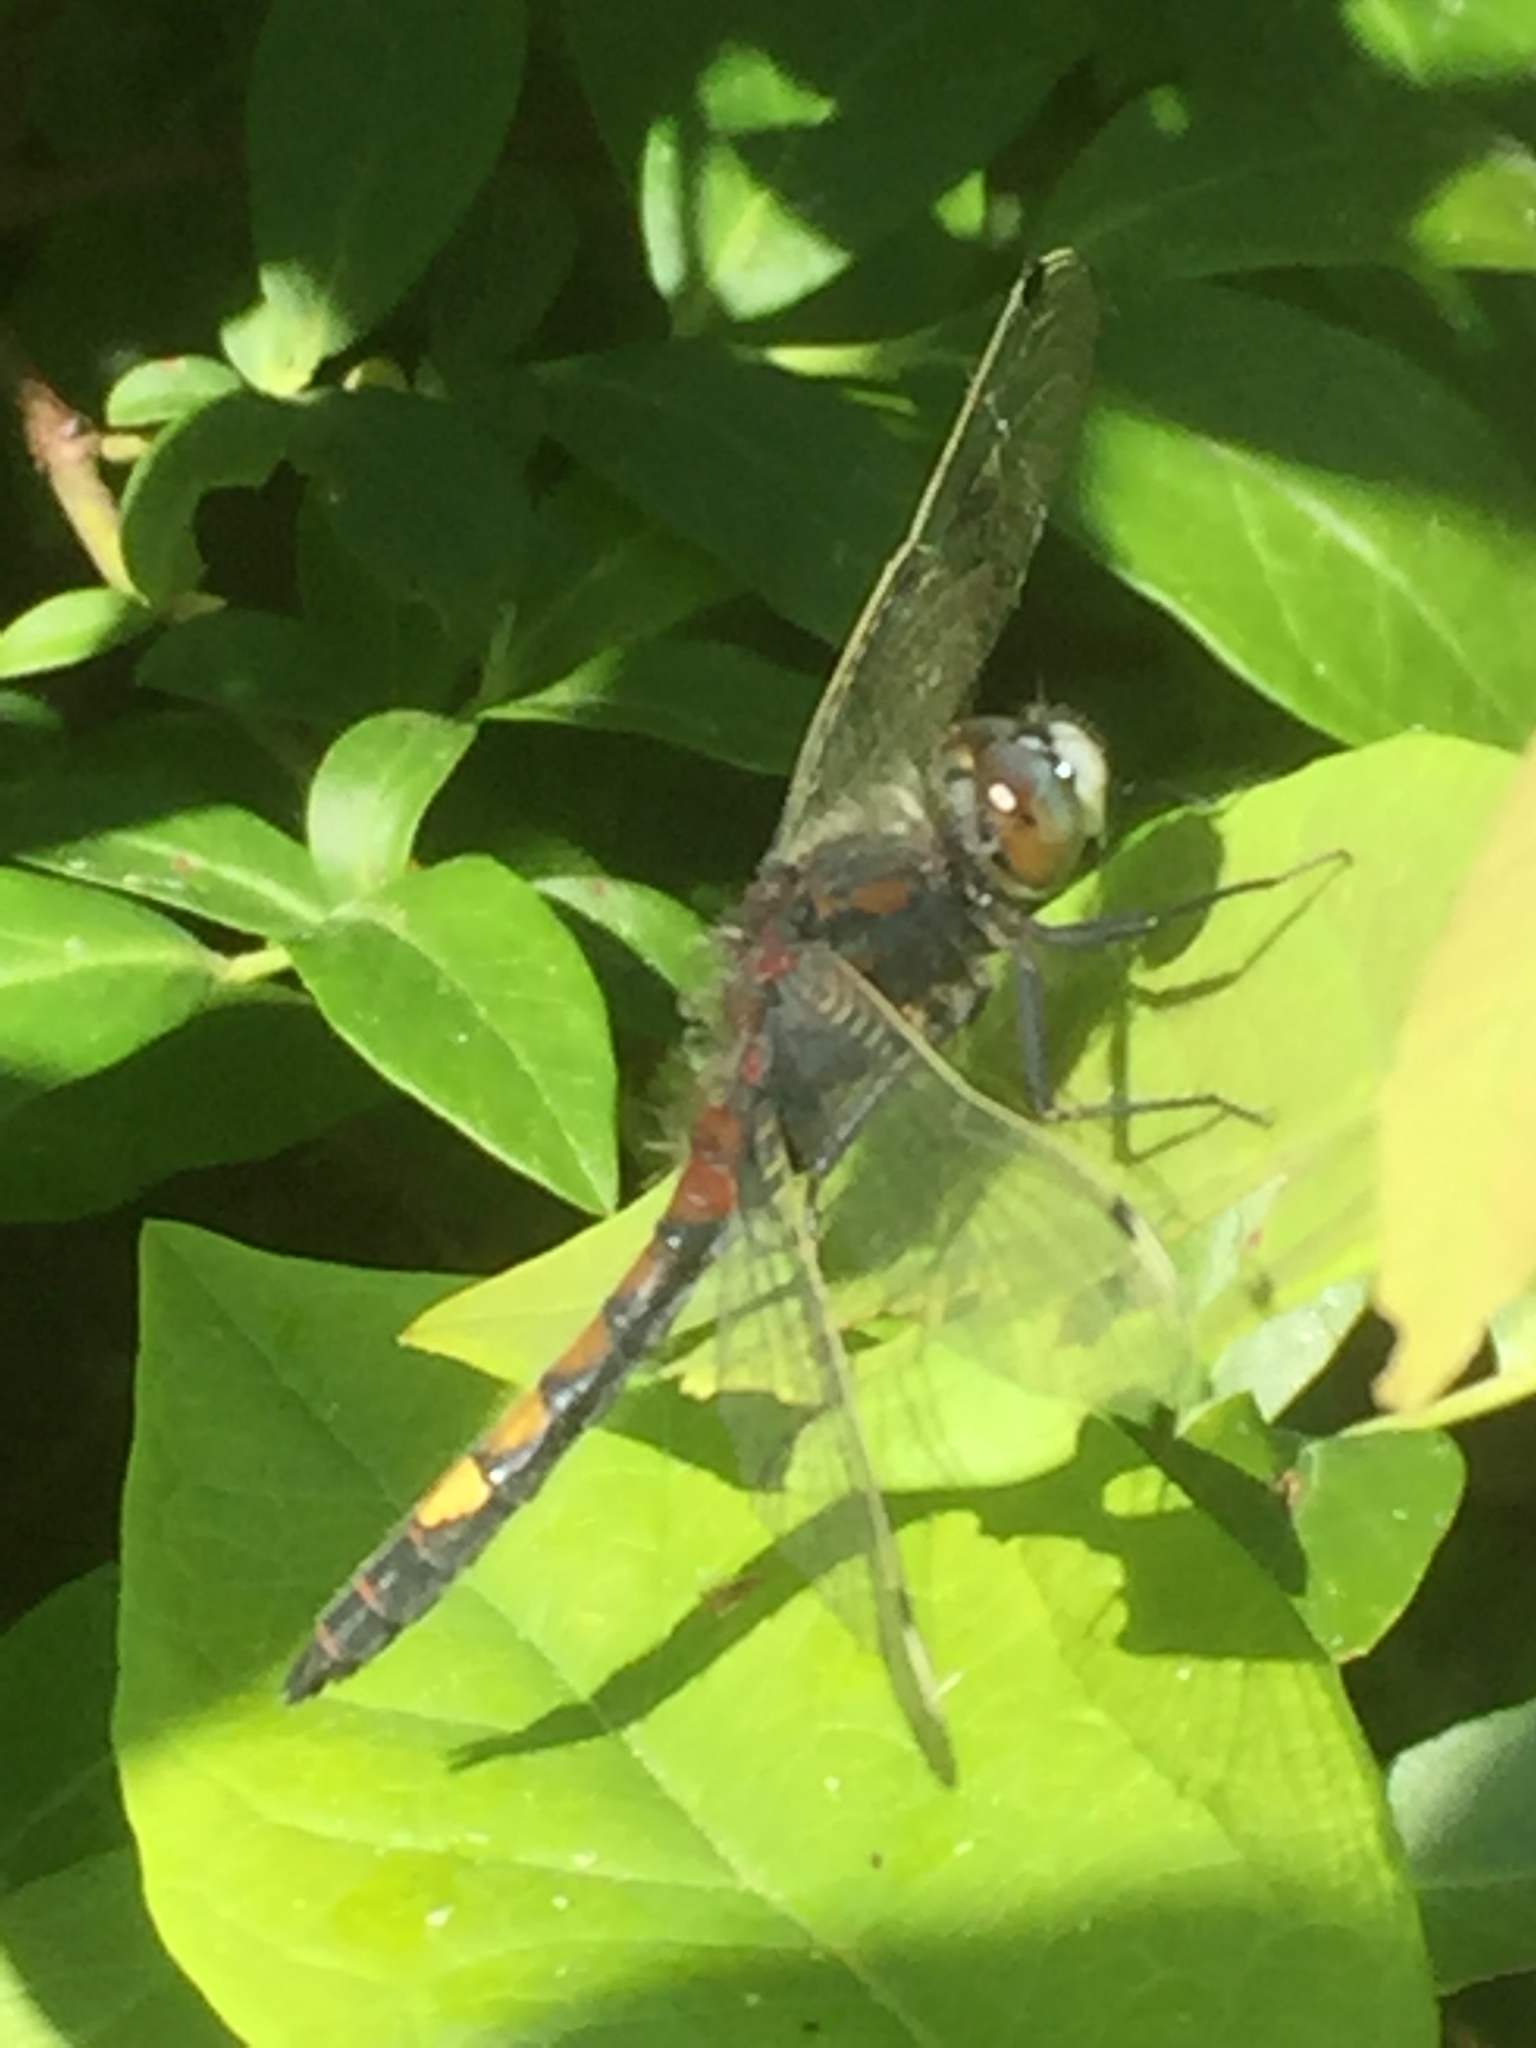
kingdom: Animalia
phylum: Arthropoda
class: Insecta
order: Odonata
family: Libellulidae
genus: Leucorrhinia
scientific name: Leucorrhinia pectoralis
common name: Yellow-spotted whiteface
